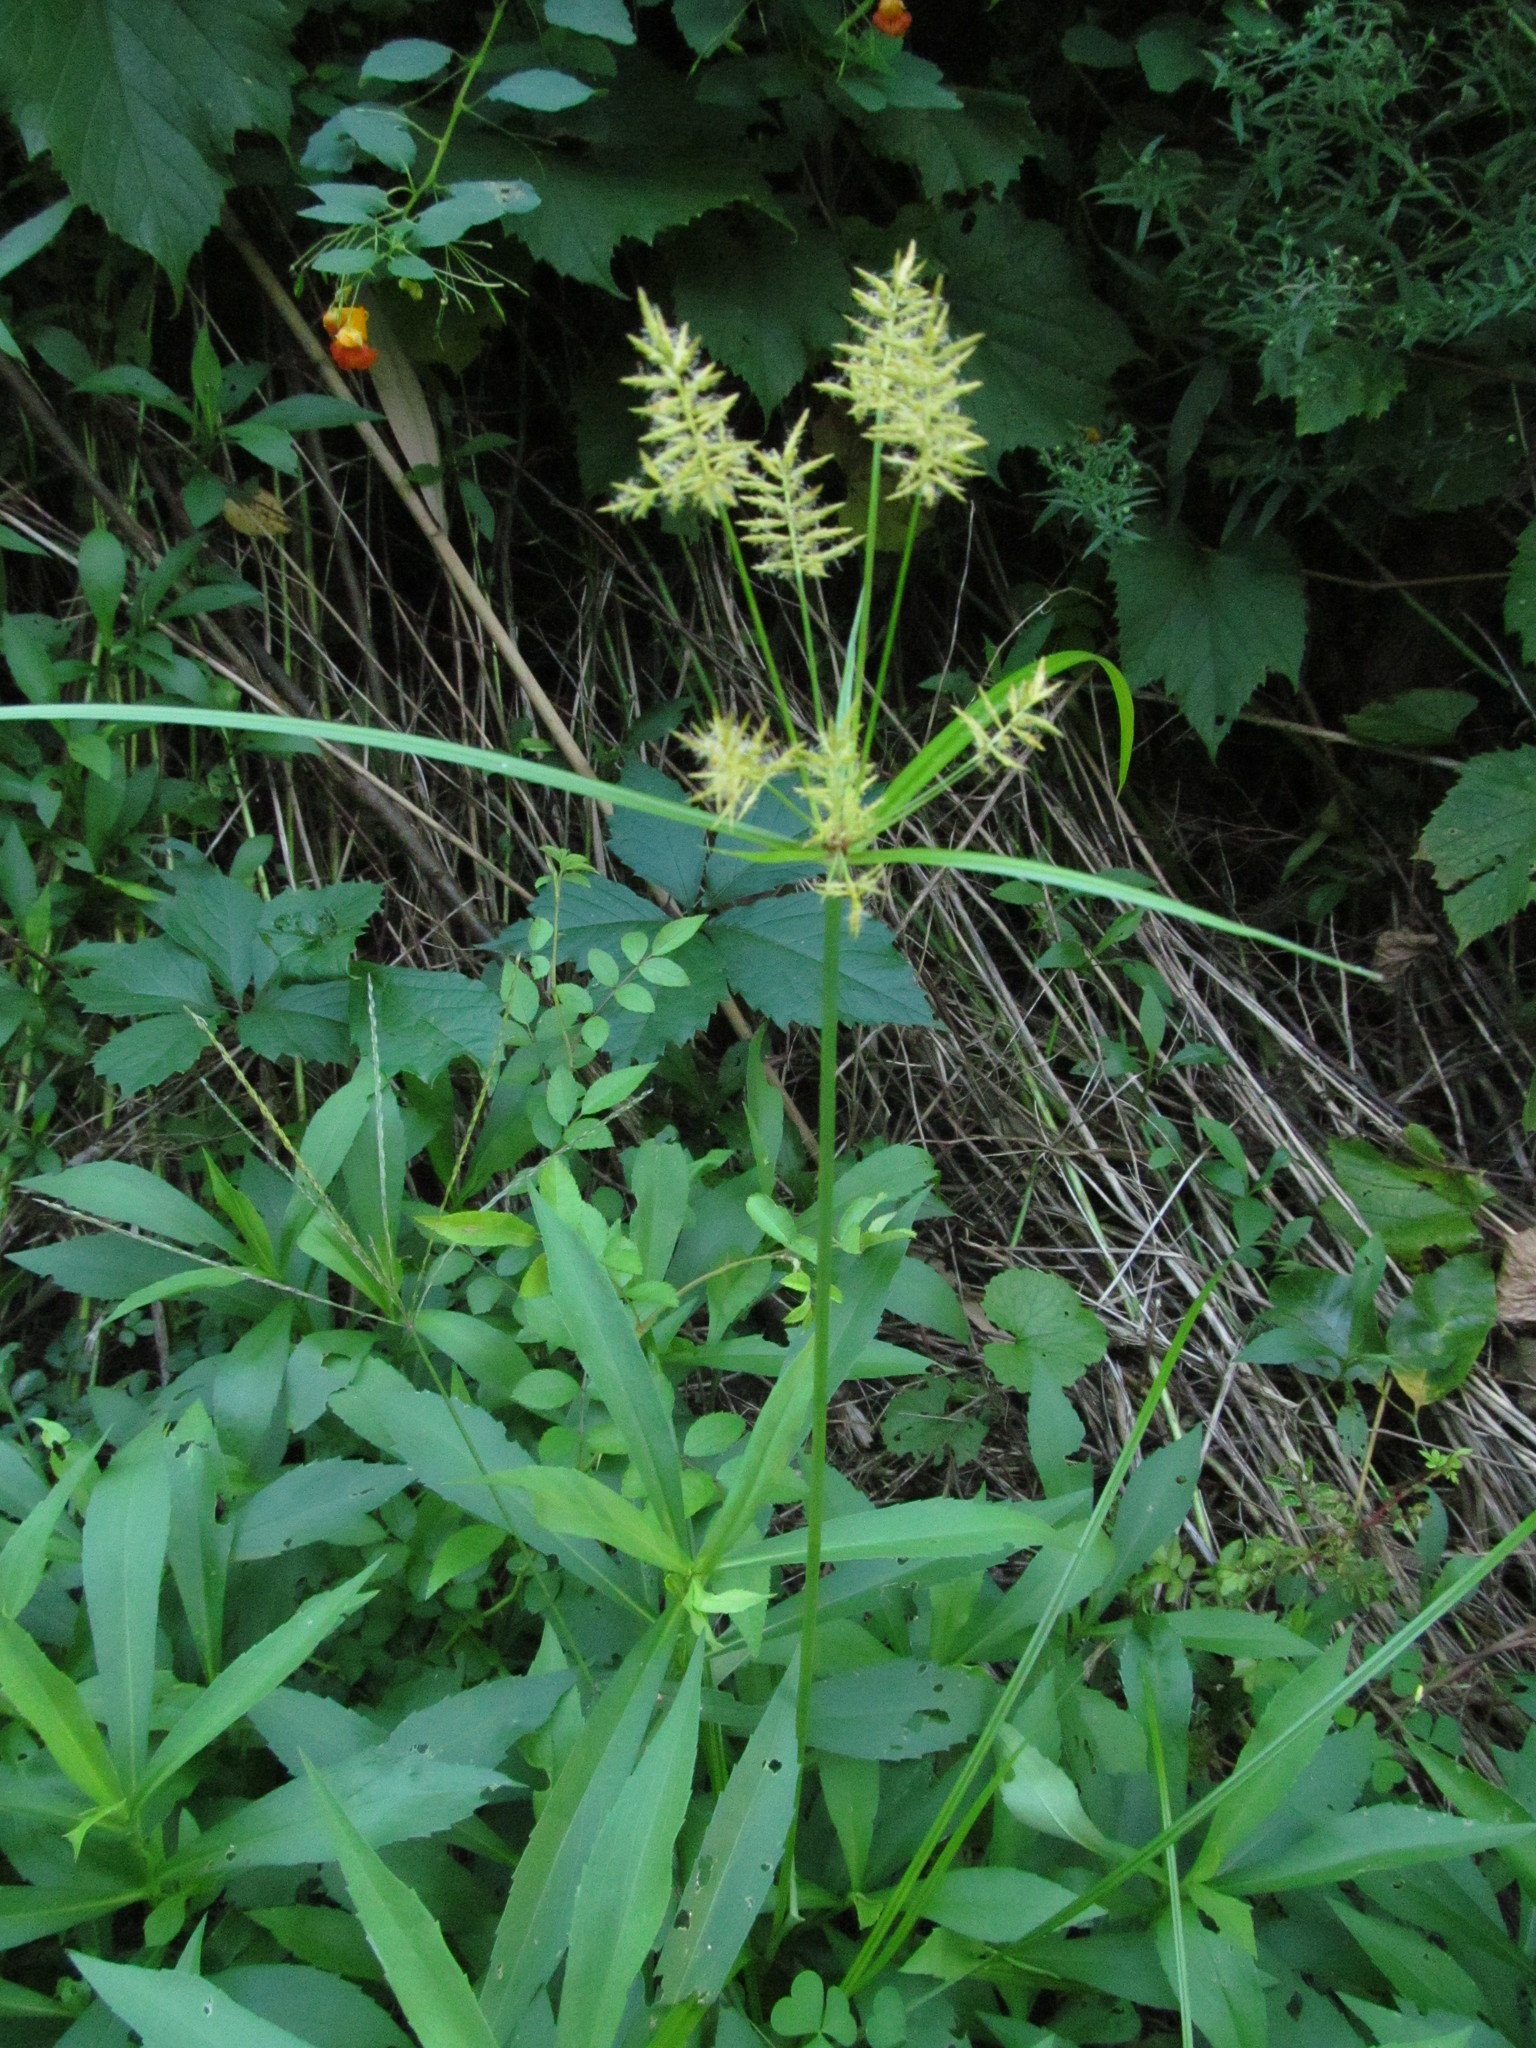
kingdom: Plantae
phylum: Tracheophyta
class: Liliopsida
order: Poales
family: Cyperaceae
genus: Cyperus
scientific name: Cyperus esculentus
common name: Yellow nutsedge
